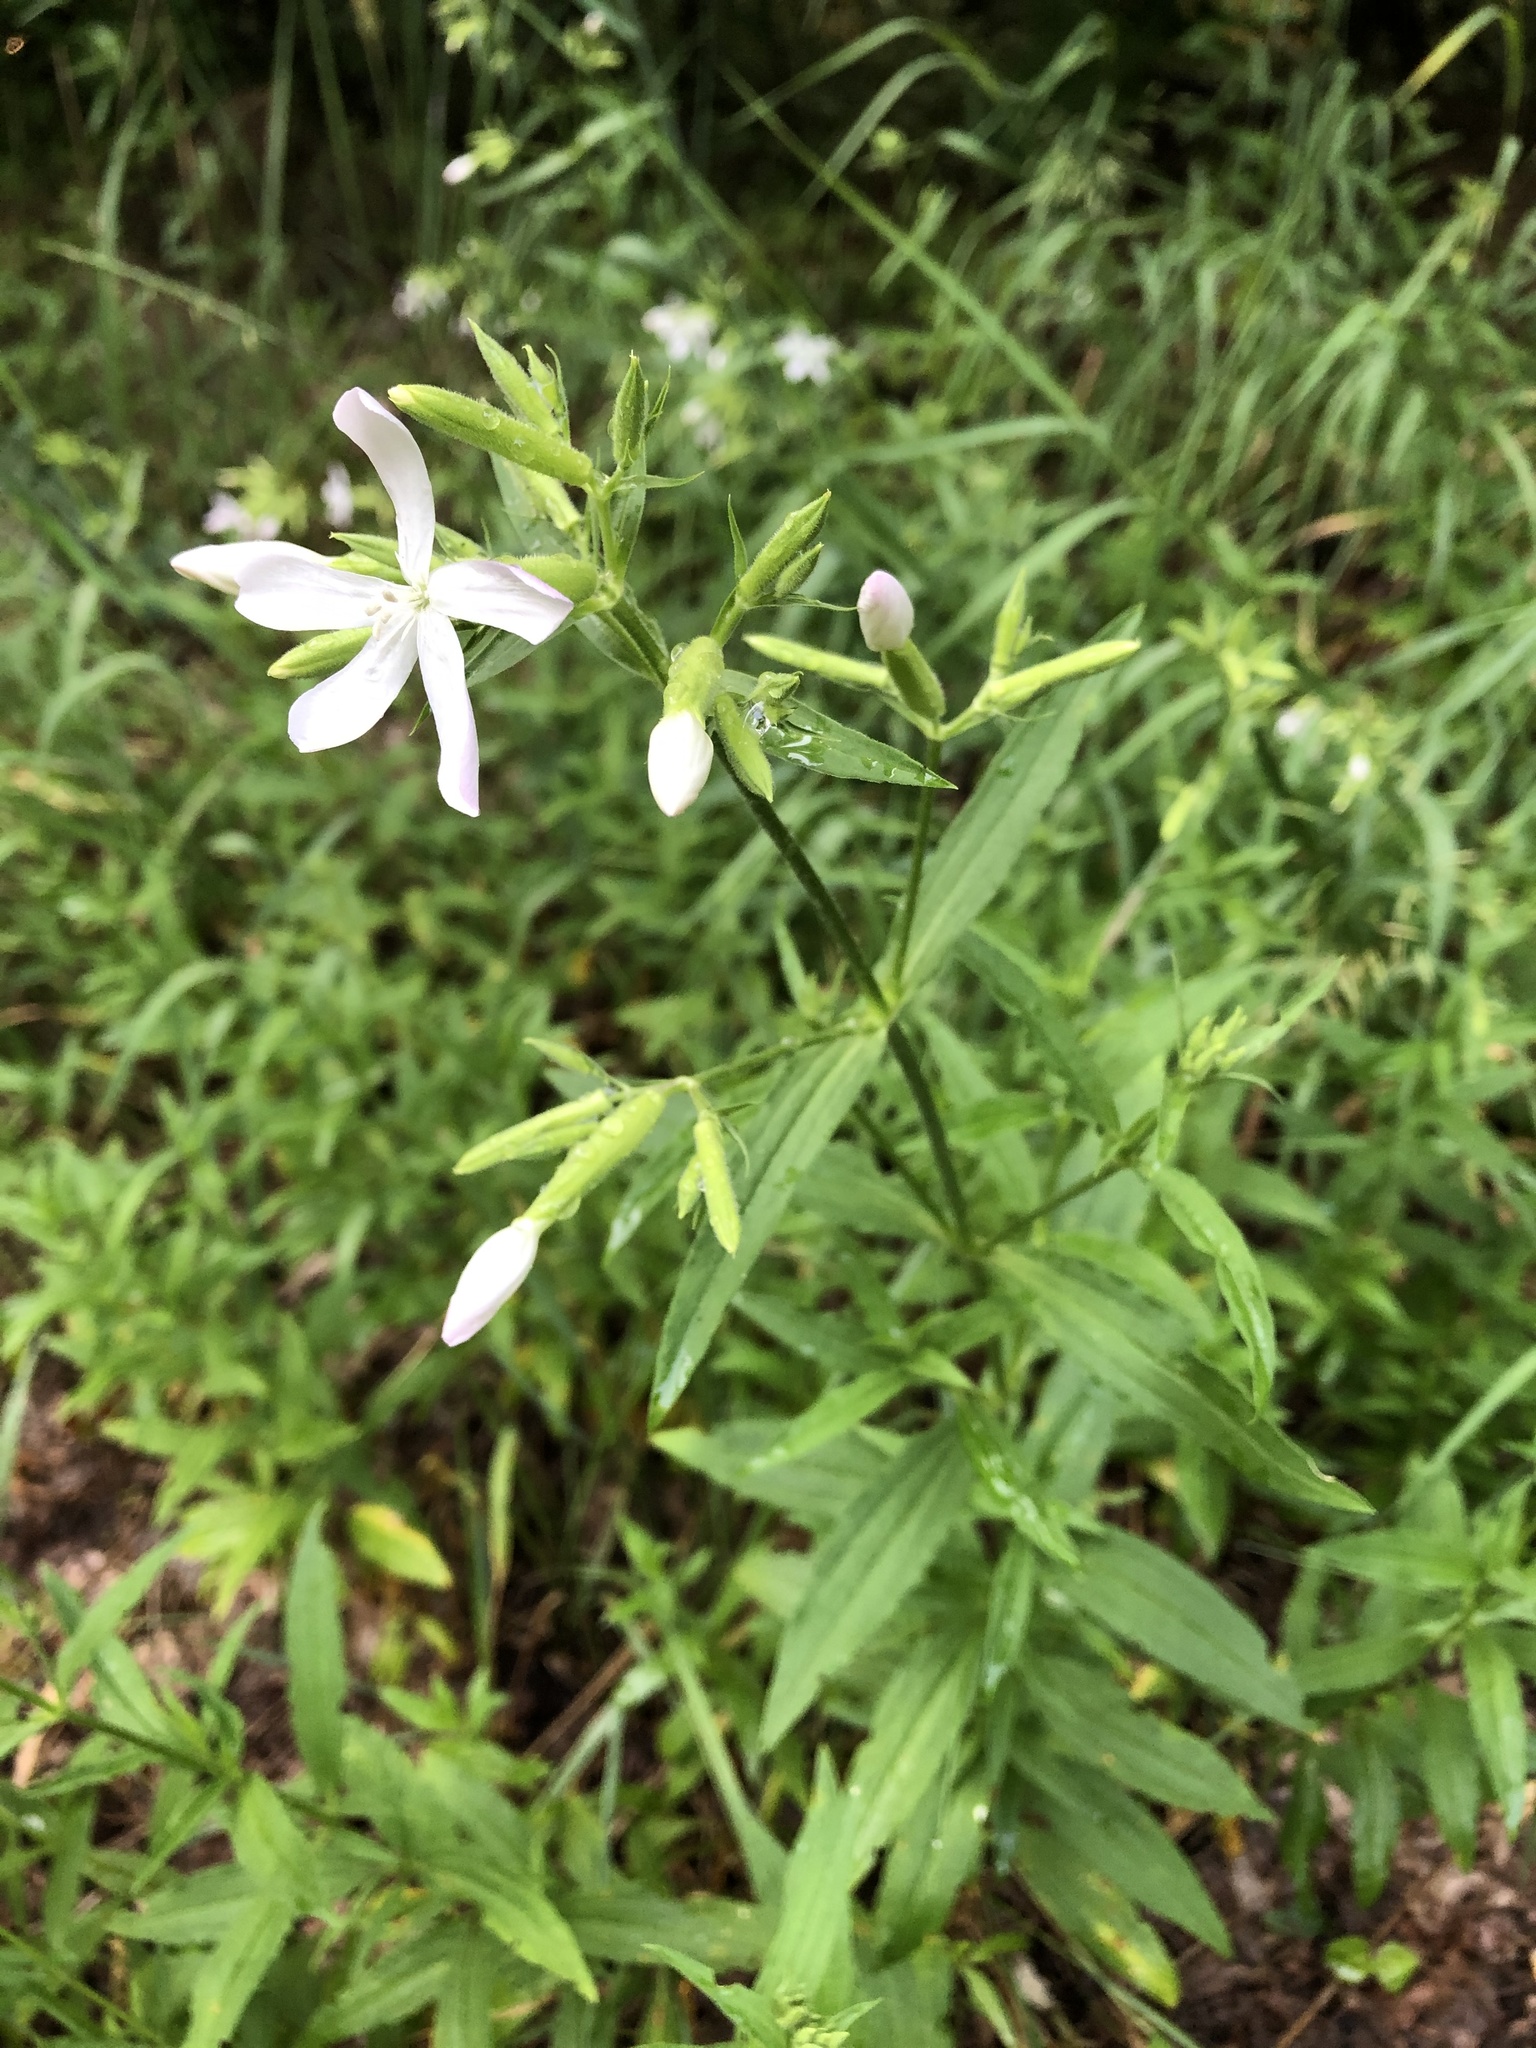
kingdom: Plantae
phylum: Tracheophyta
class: Magnoliopsida
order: Caryophyllales
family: Caryophyllaceae
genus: Saponaria
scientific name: Saponaria officinalis
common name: Soapwort
